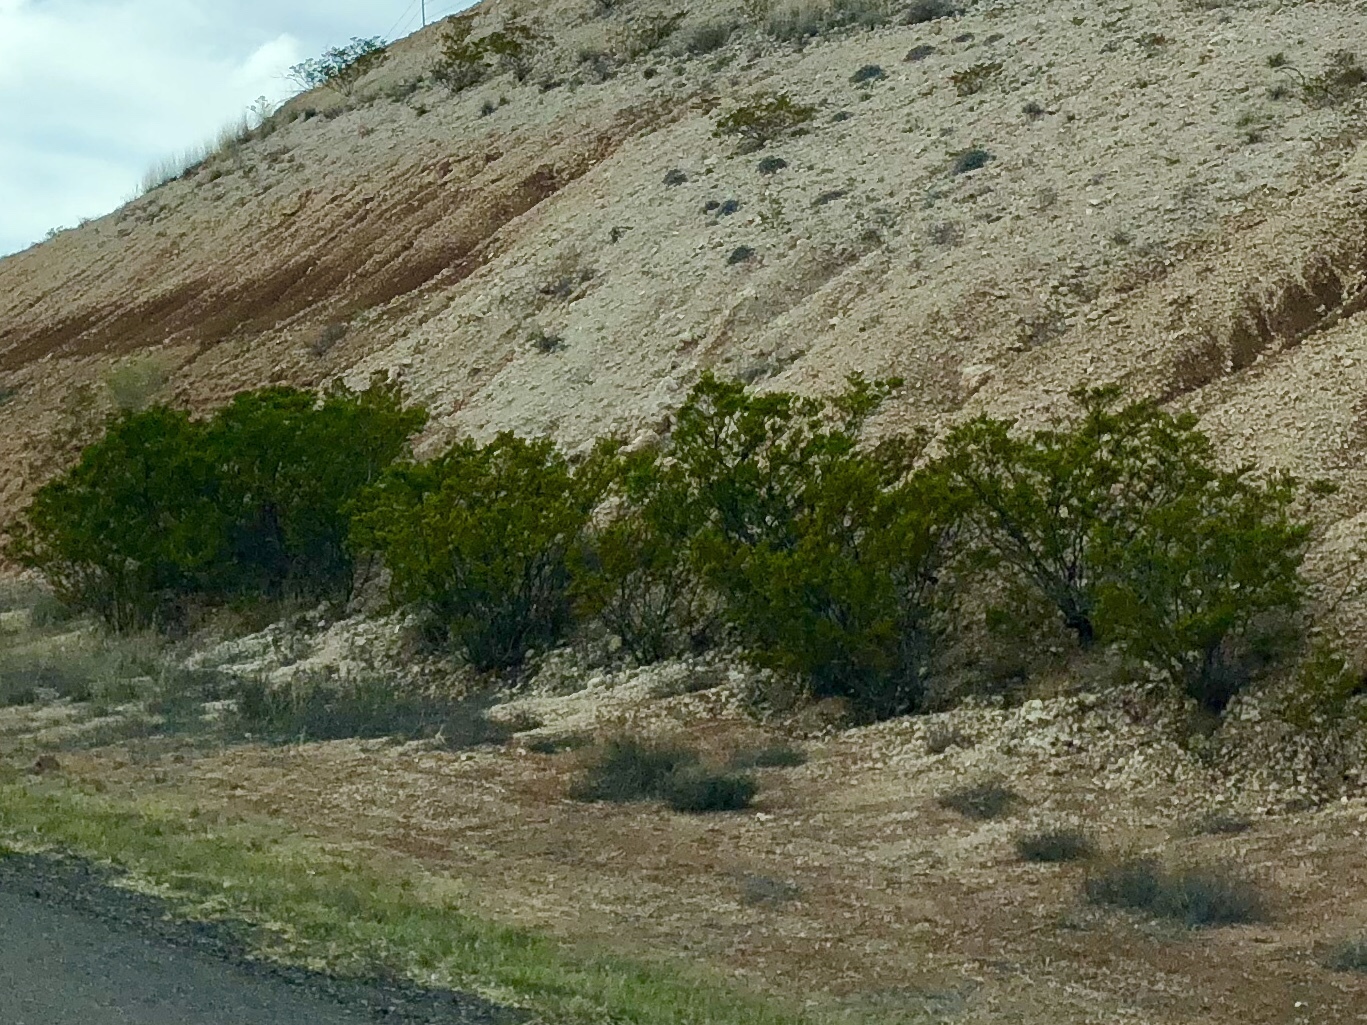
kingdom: Plantae
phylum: Tracheophyta
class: Magnoliopsida
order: Zygophyllales
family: Zygophyllaceae
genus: Larrea
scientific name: Larrea tridentata
